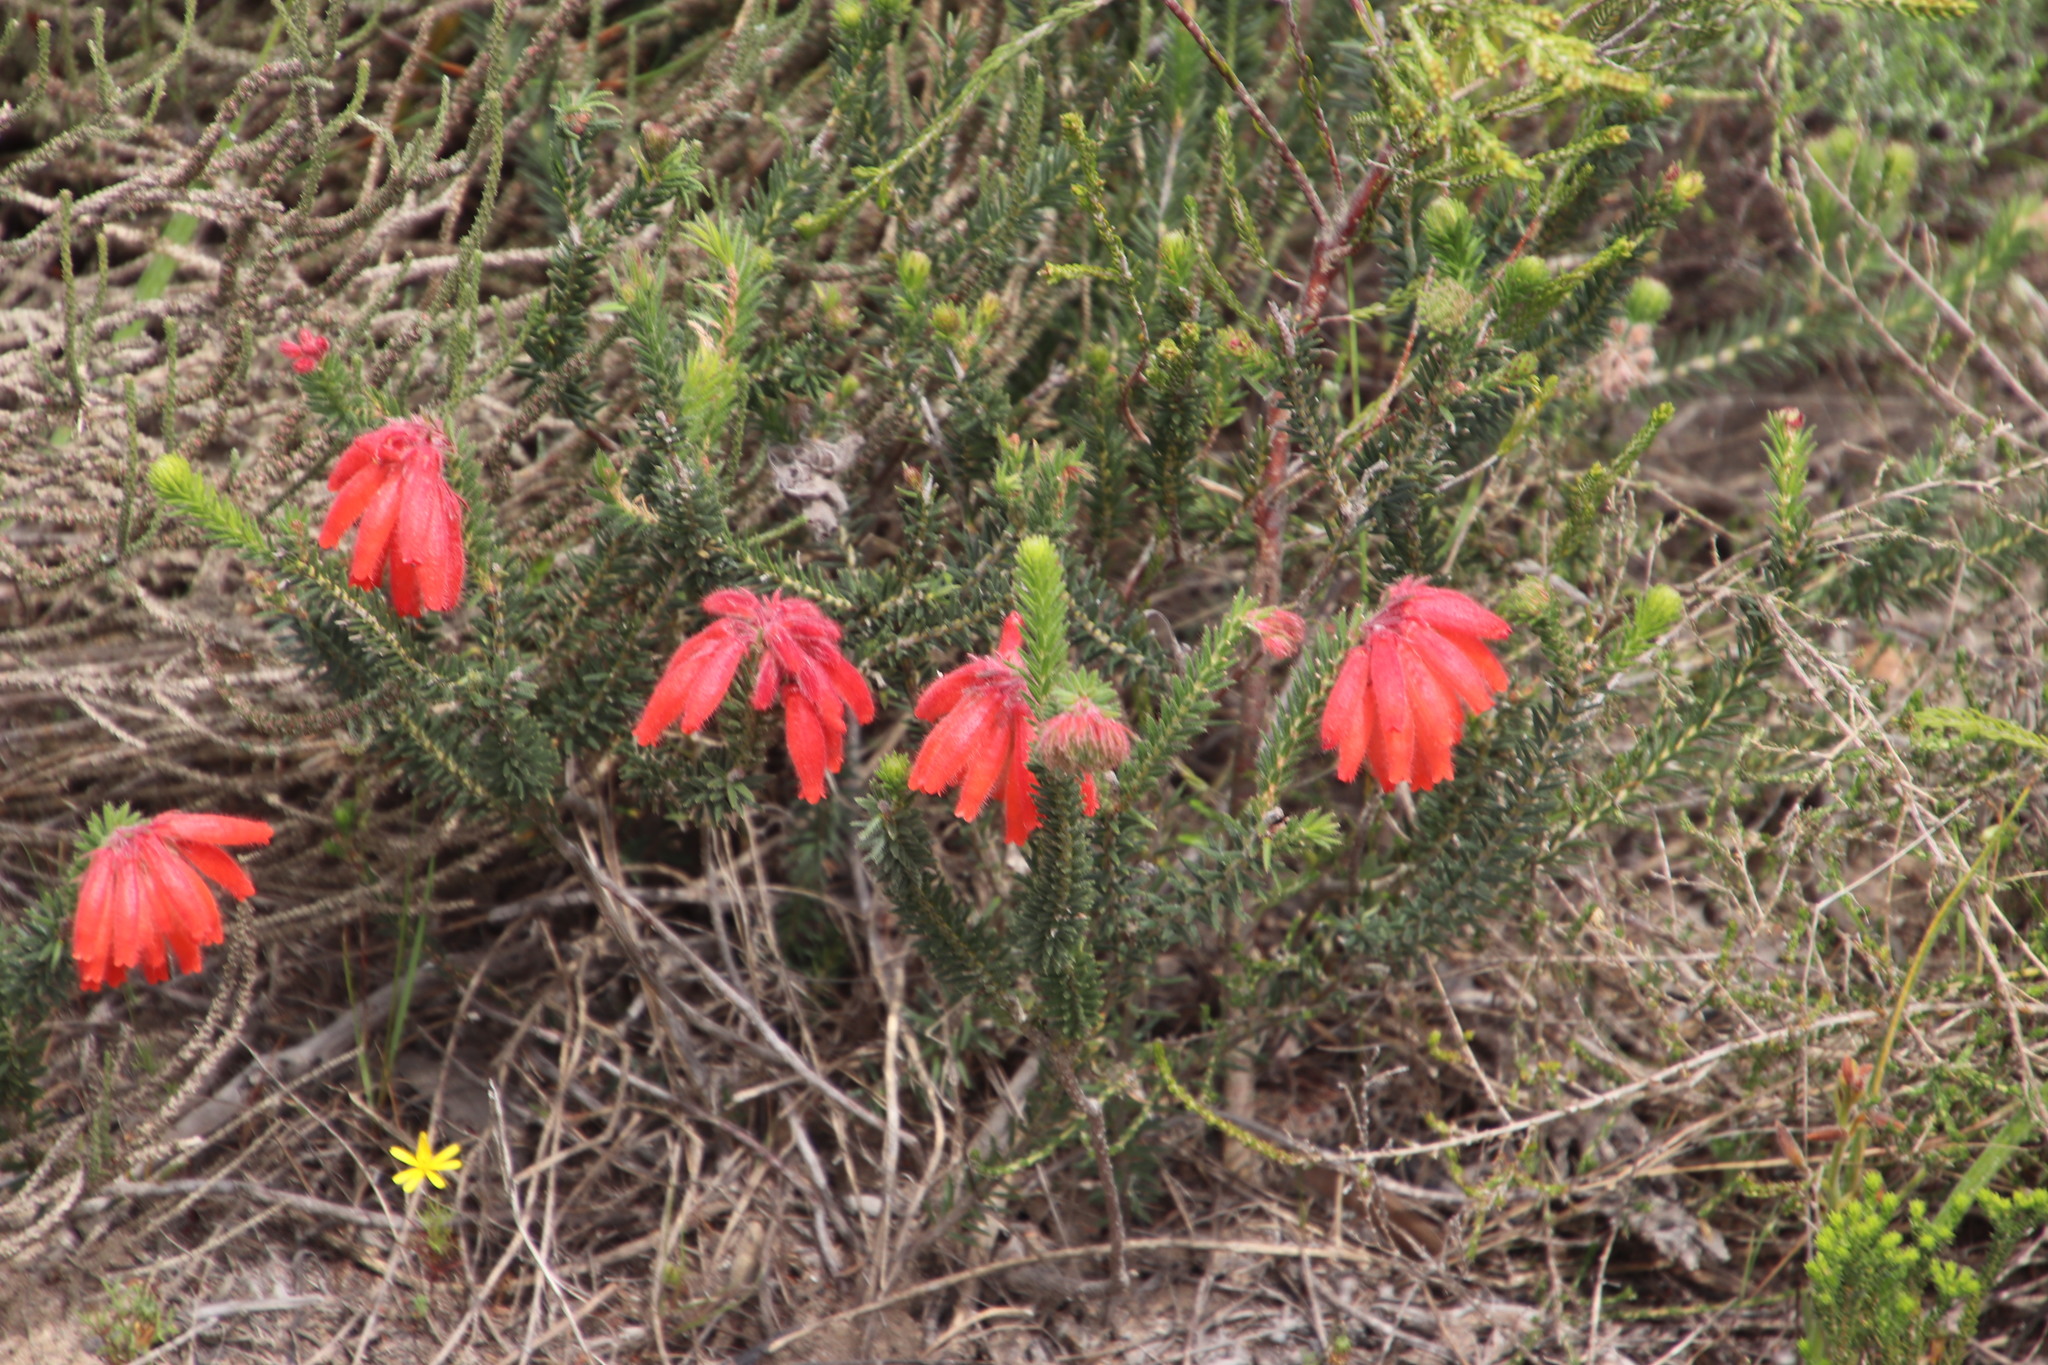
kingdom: Plantae
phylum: Tracheophyta
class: Magnoliopsida
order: Ericales
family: Ericaceae
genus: Erica
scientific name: Erica cerinthoides
